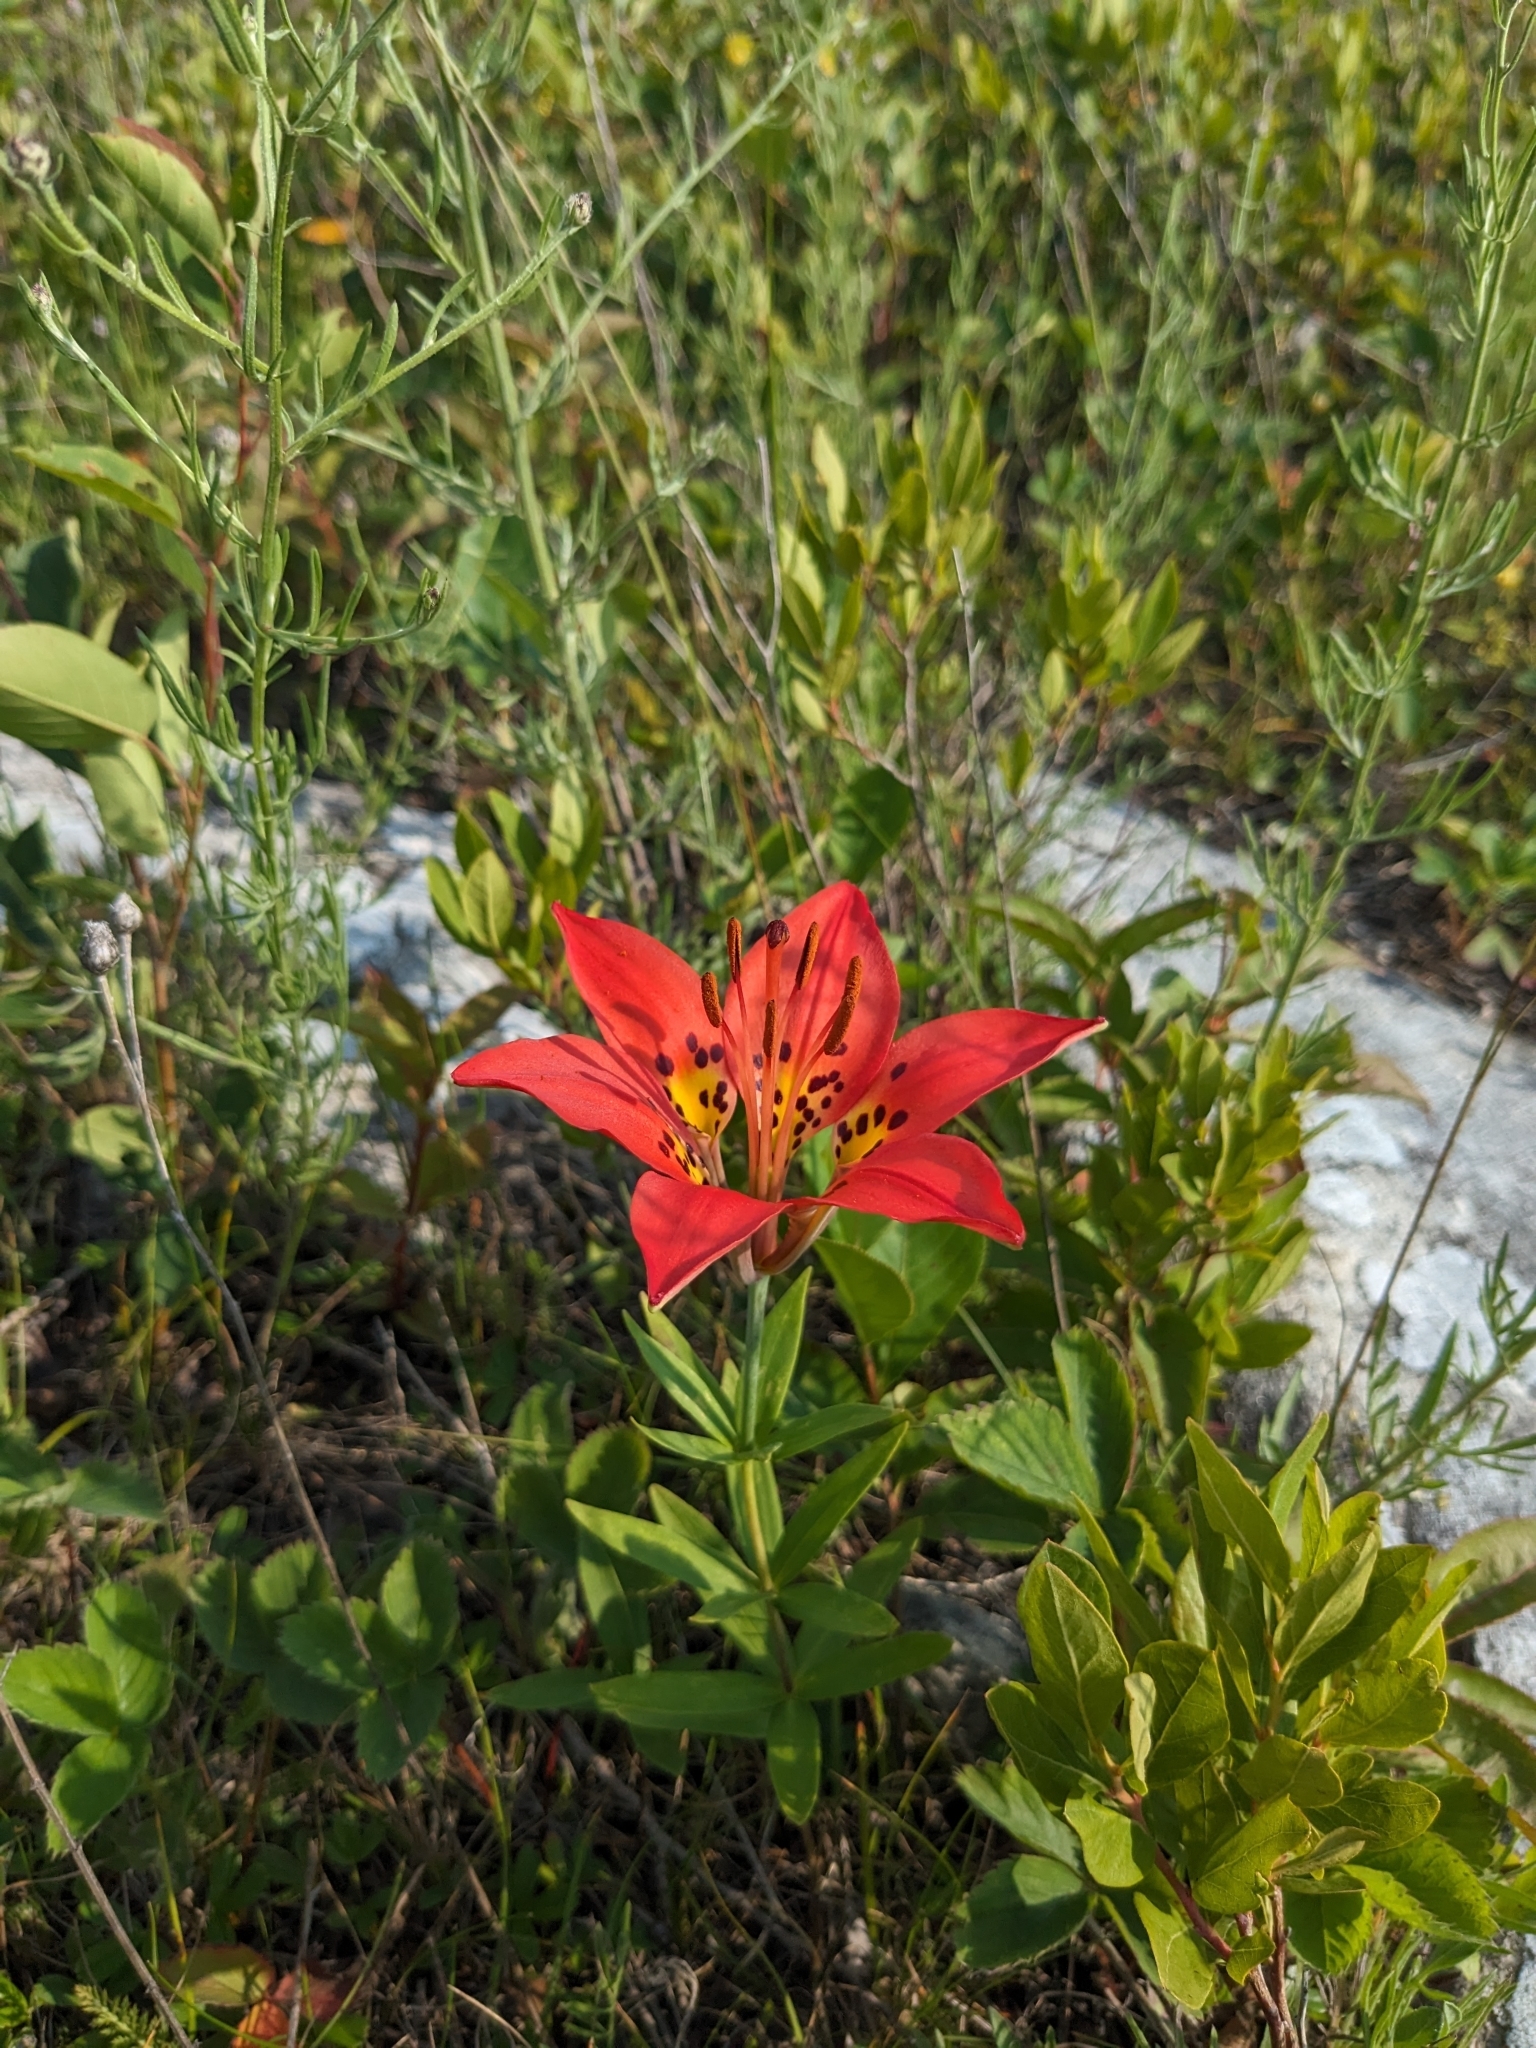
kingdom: Plantae
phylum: Tracheophyta
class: Liliopsida
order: Liliales
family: Liliaceae
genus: Lilium
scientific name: Lilium philadelphicum
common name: Red lily
